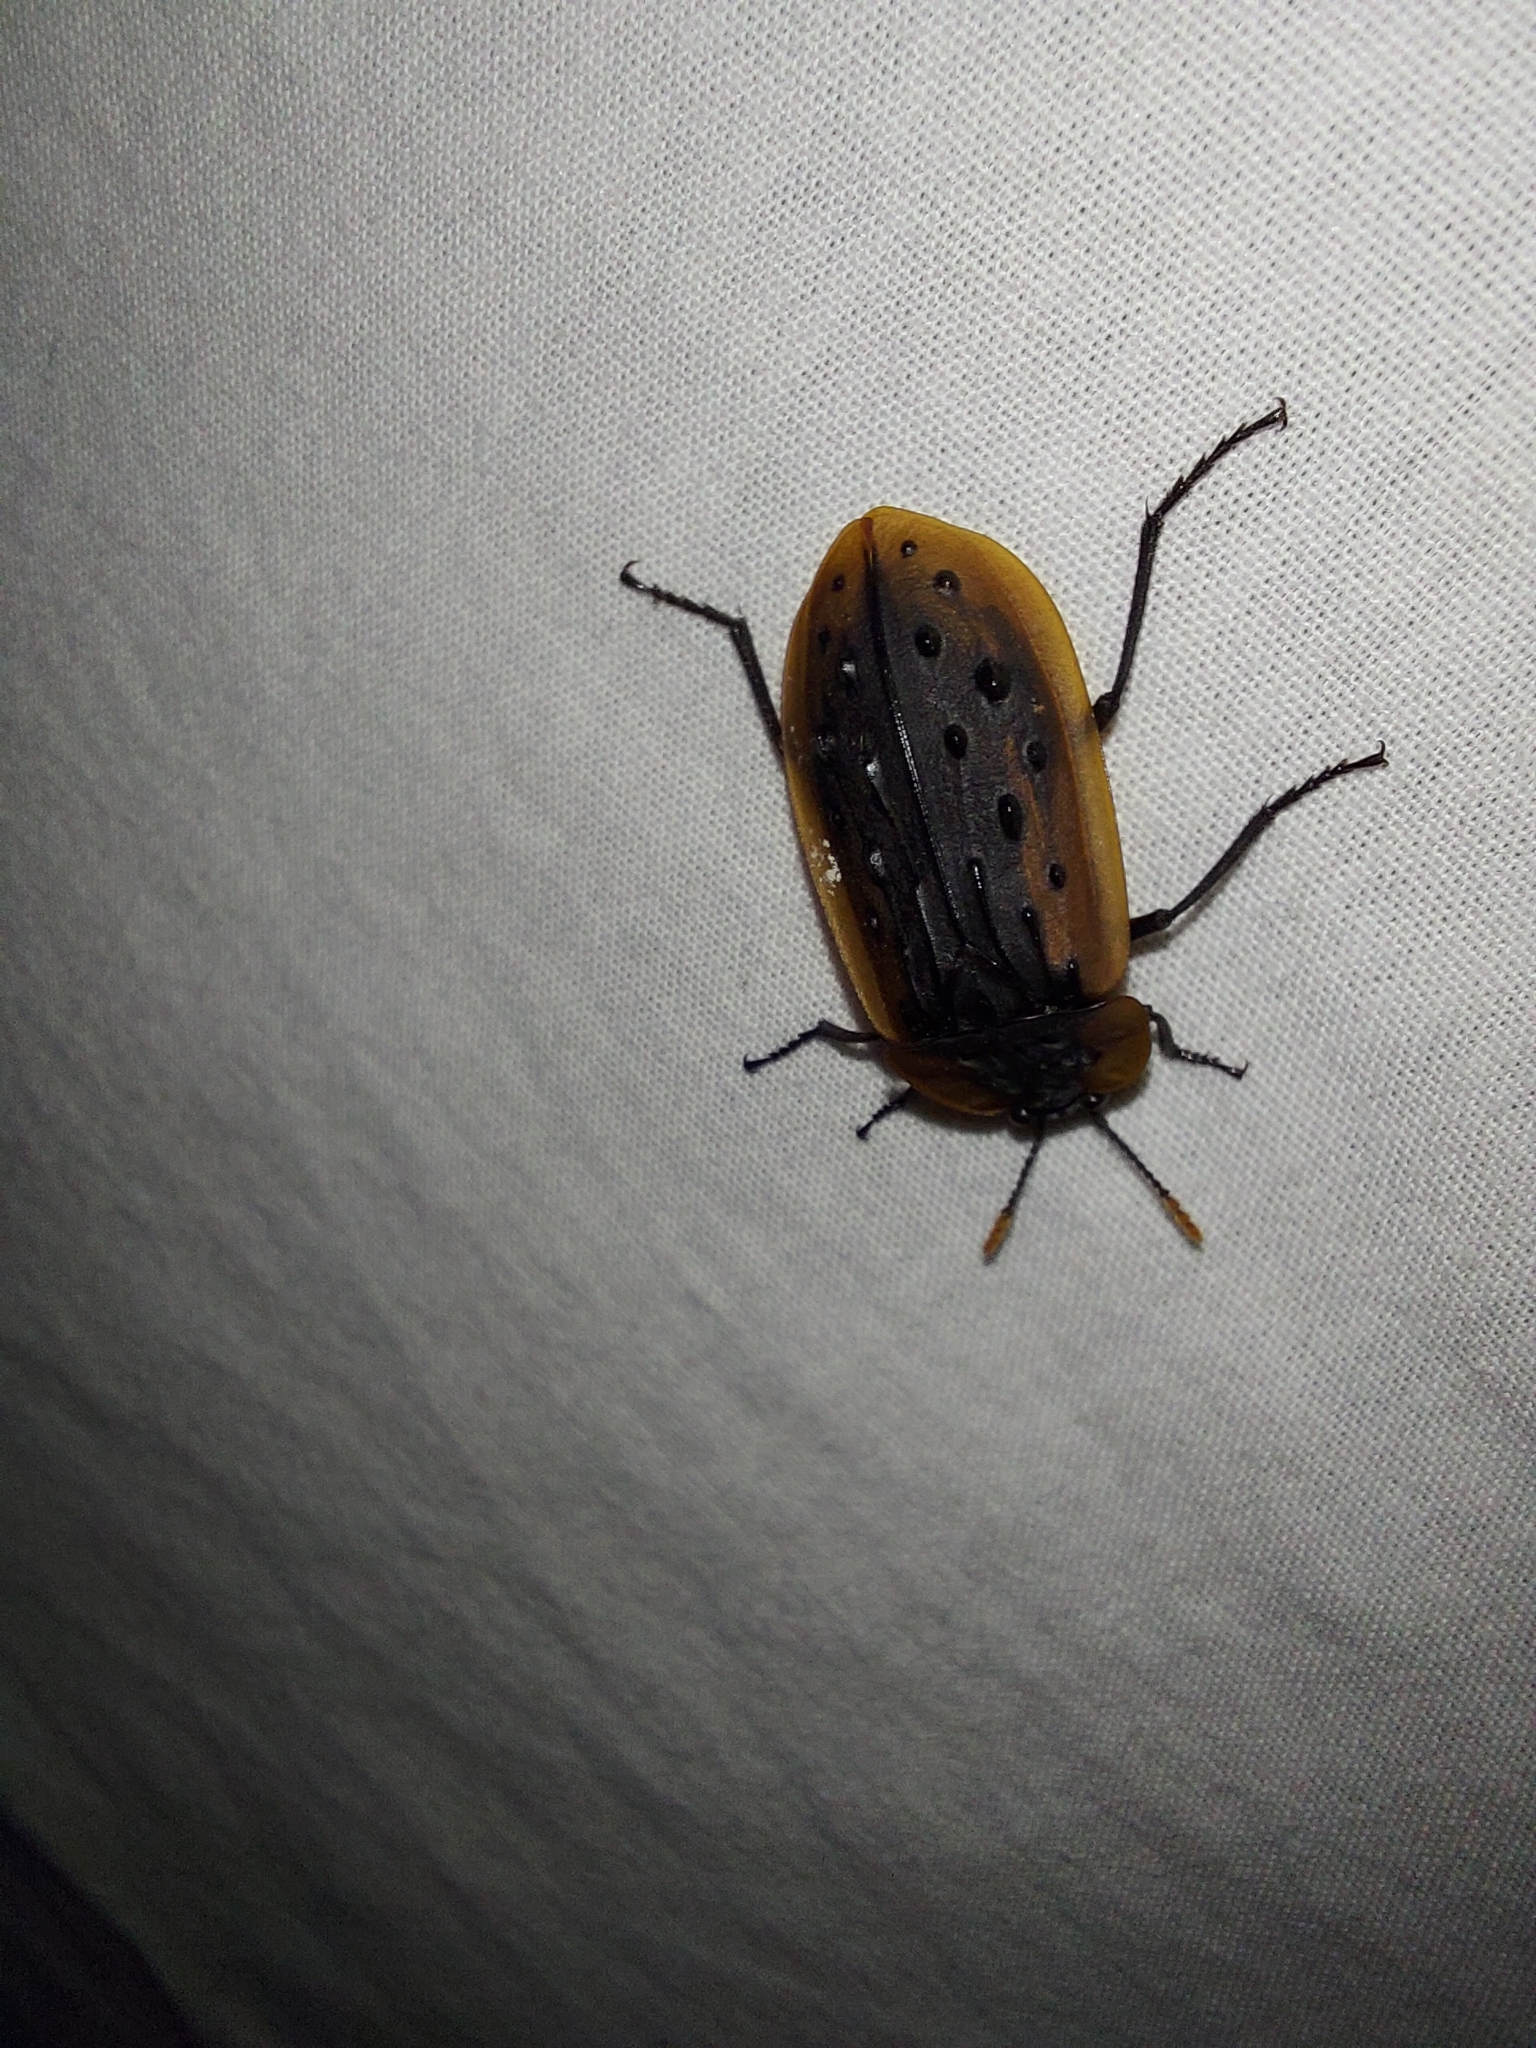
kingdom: Animalia
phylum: Arthropoda
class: Insecta
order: Coleoptera
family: Staphylinidae
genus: Ptomaphila
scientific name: Ptomaphila lacrymosa
